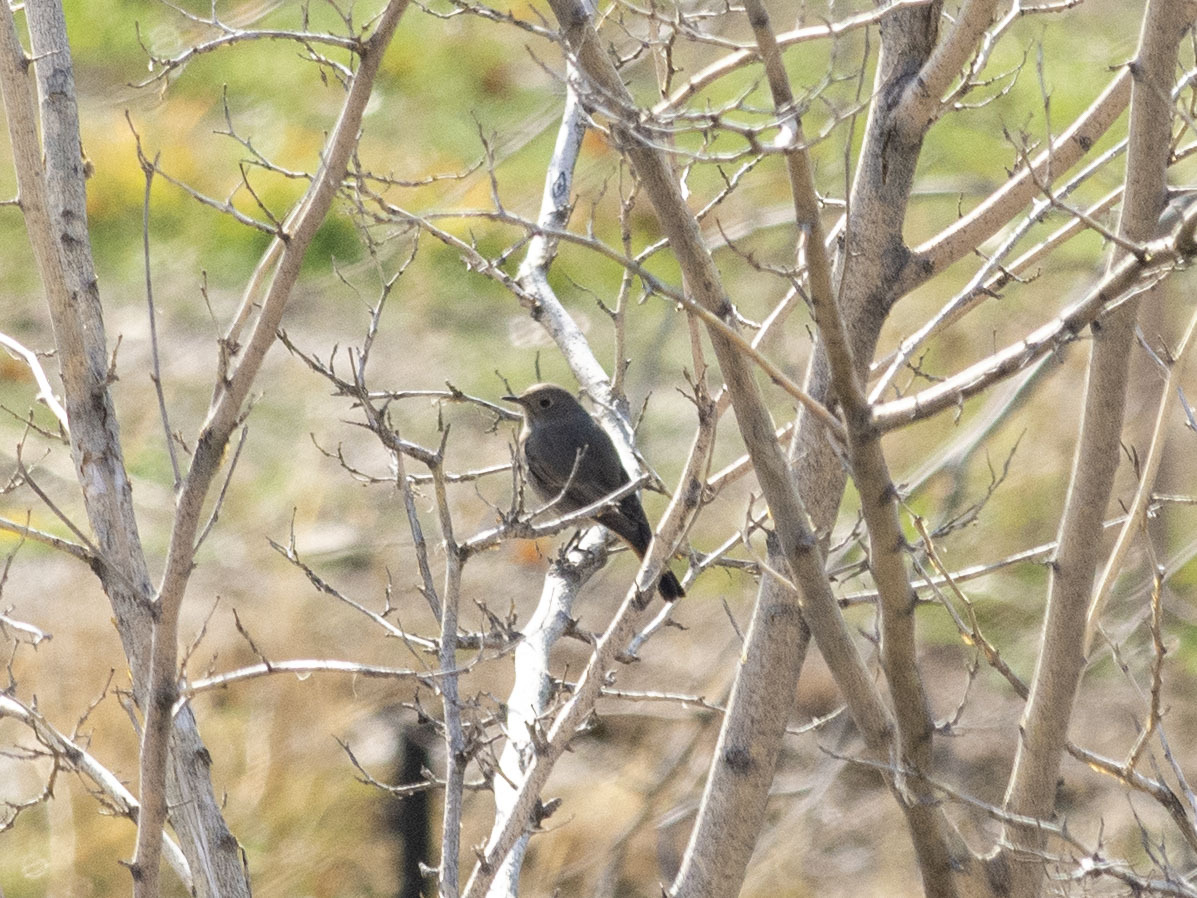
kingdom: Animalia
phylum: Chordata
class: Aves
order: Passeriformes
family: Muscicapidae
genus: Phoenicurus
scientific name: Phoenicurus ochruros
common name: Black redstart
